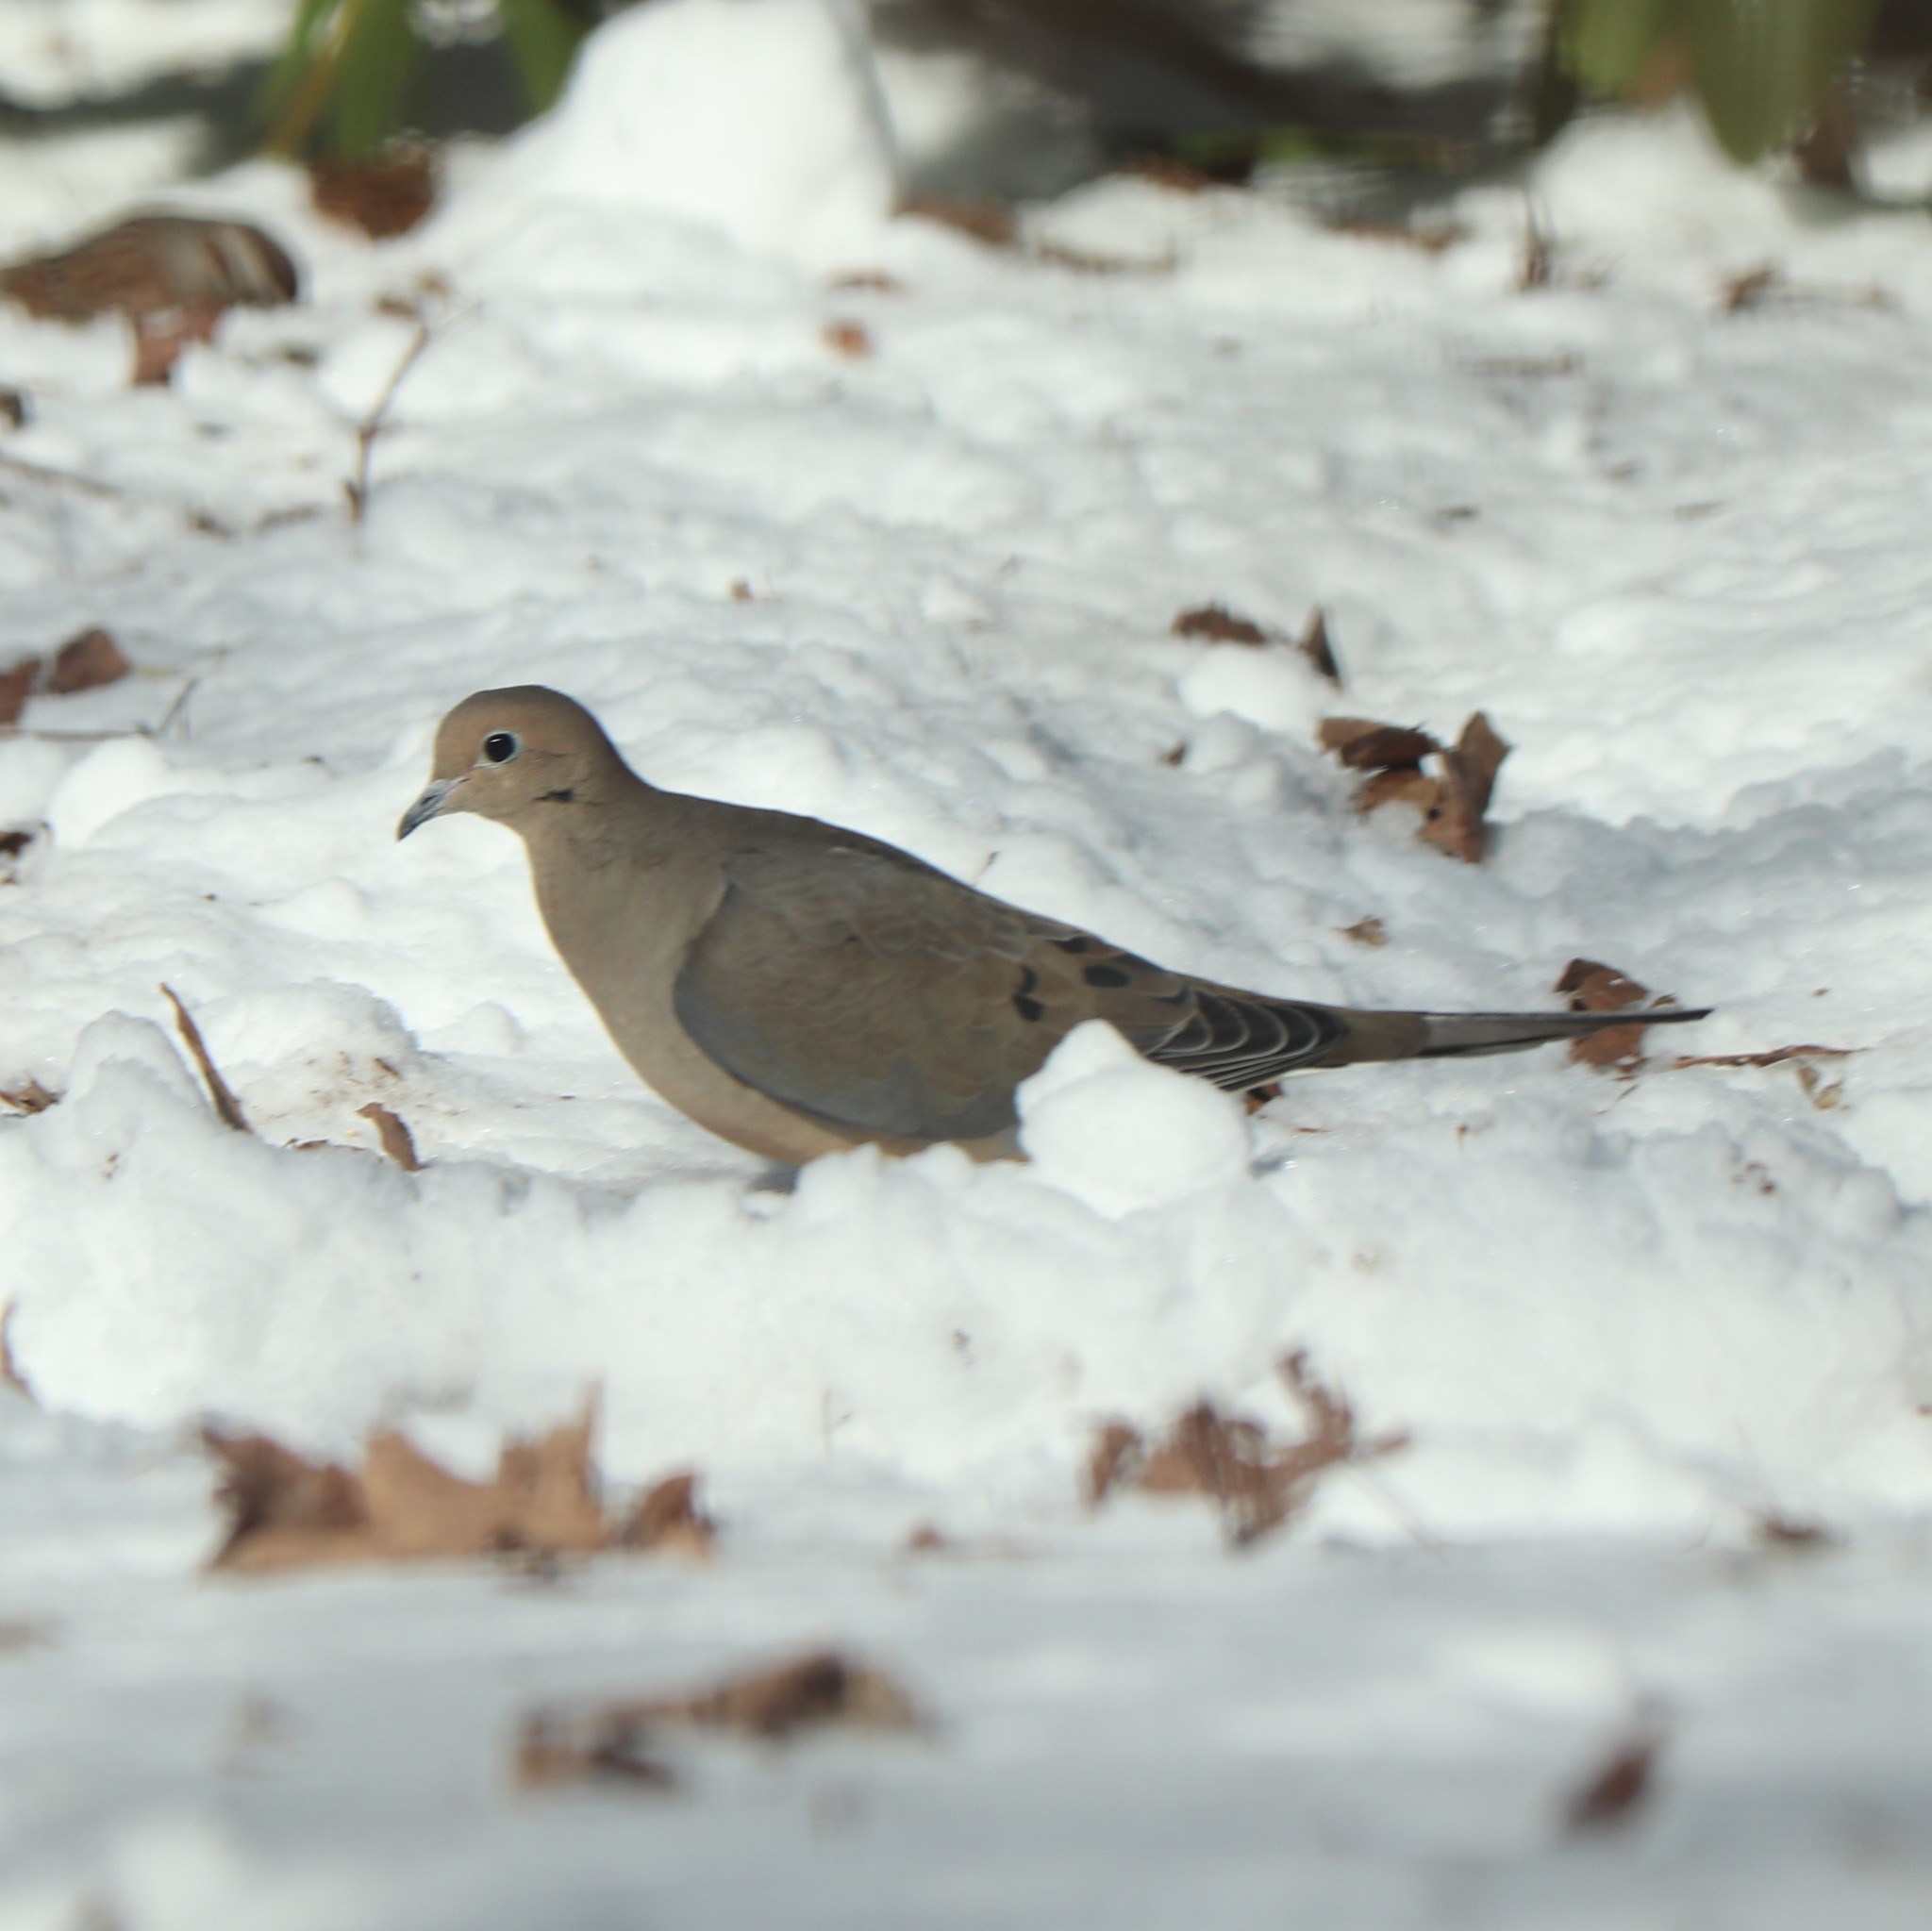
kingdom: Animalia
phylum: Chordata
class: Aves
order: Columbiformes
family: Columbidae
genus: Zenaida
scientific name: Zenaida macroura
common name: Mourning dove
